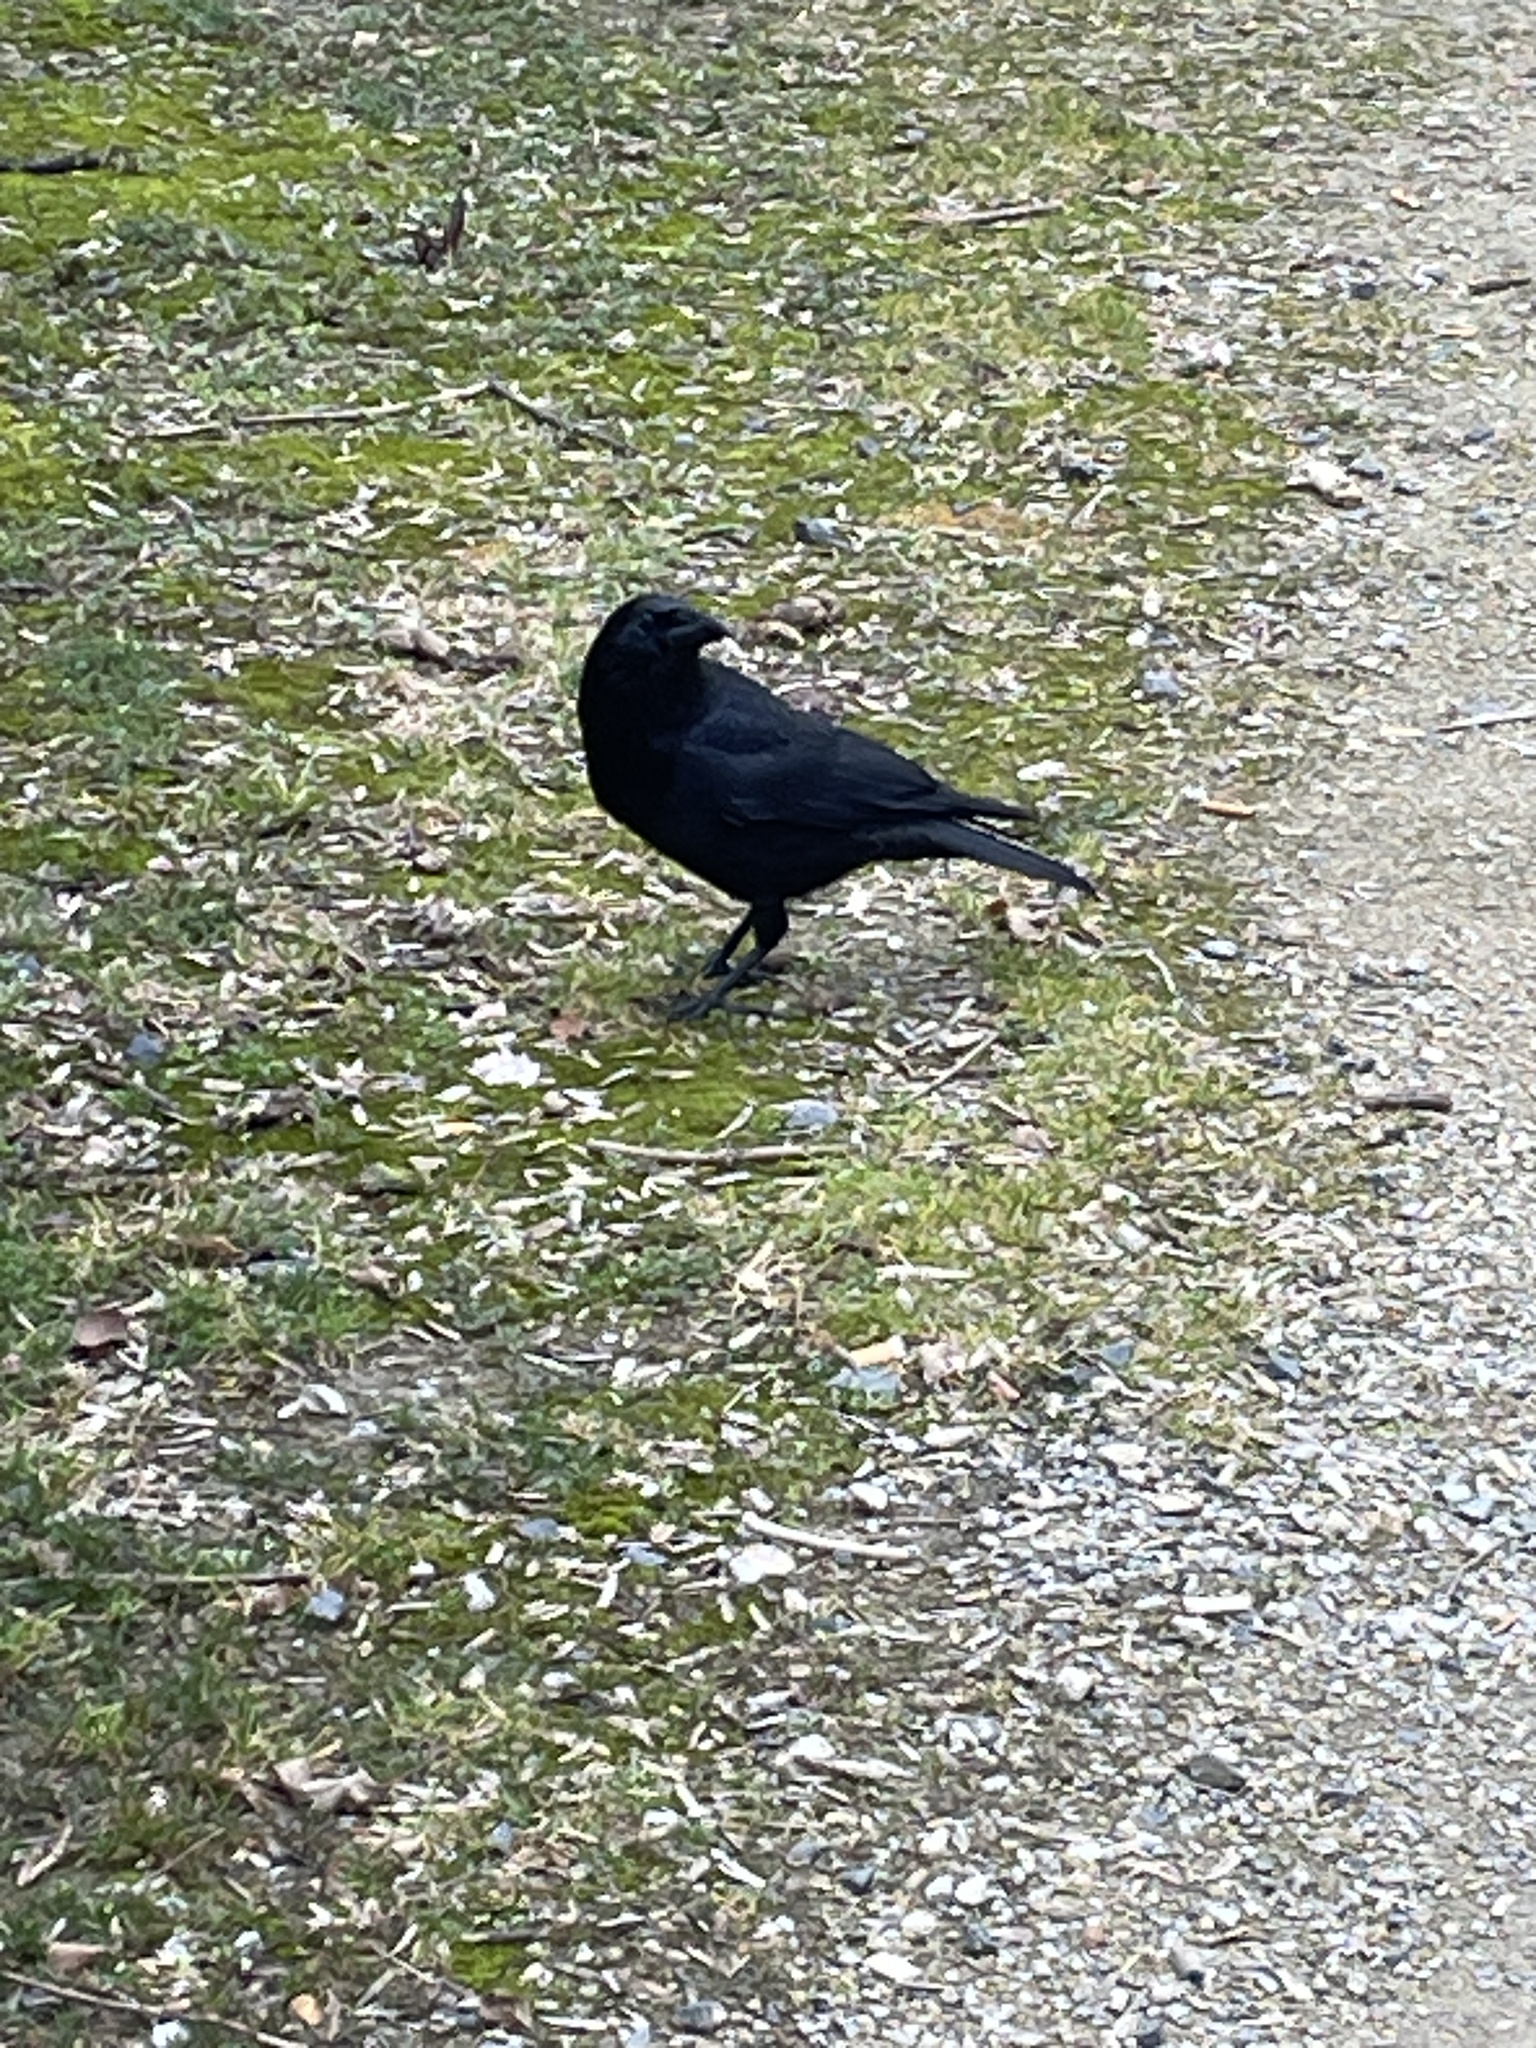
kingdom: Animalia
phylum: Chordata
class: Aves
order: Passeriformes
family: Corvidae
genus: Corvus
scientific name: Corvus corone
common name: Carrion crow
